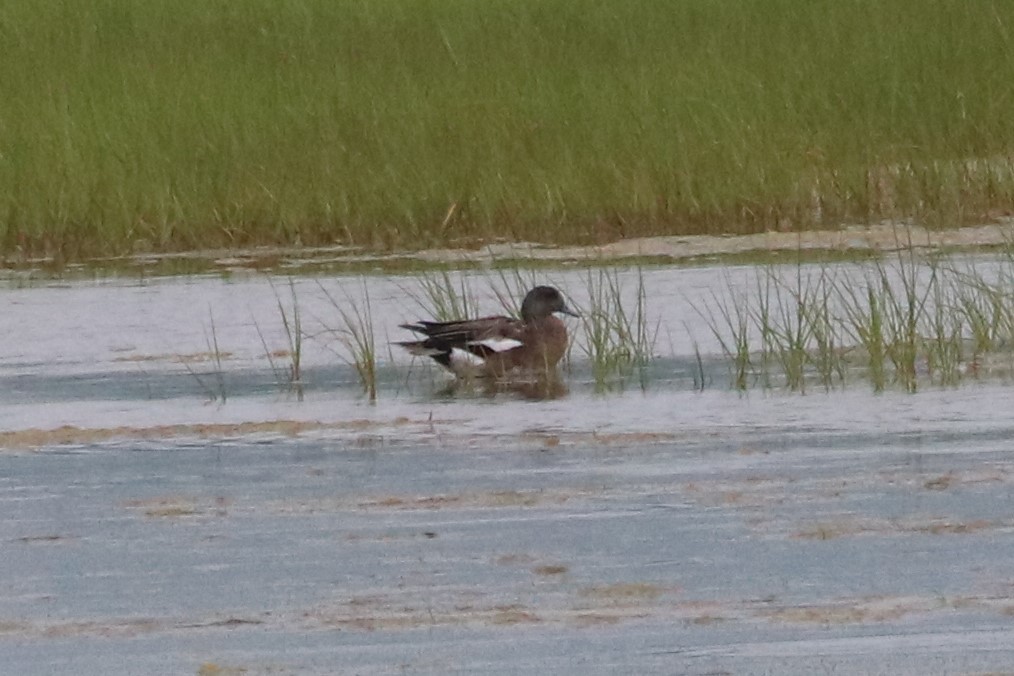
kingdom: Animalia
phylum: Chordata
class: Aves
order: Anseriformes
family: Anatidae
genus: Mareca
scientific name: Mareca americana
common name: American wigeon
